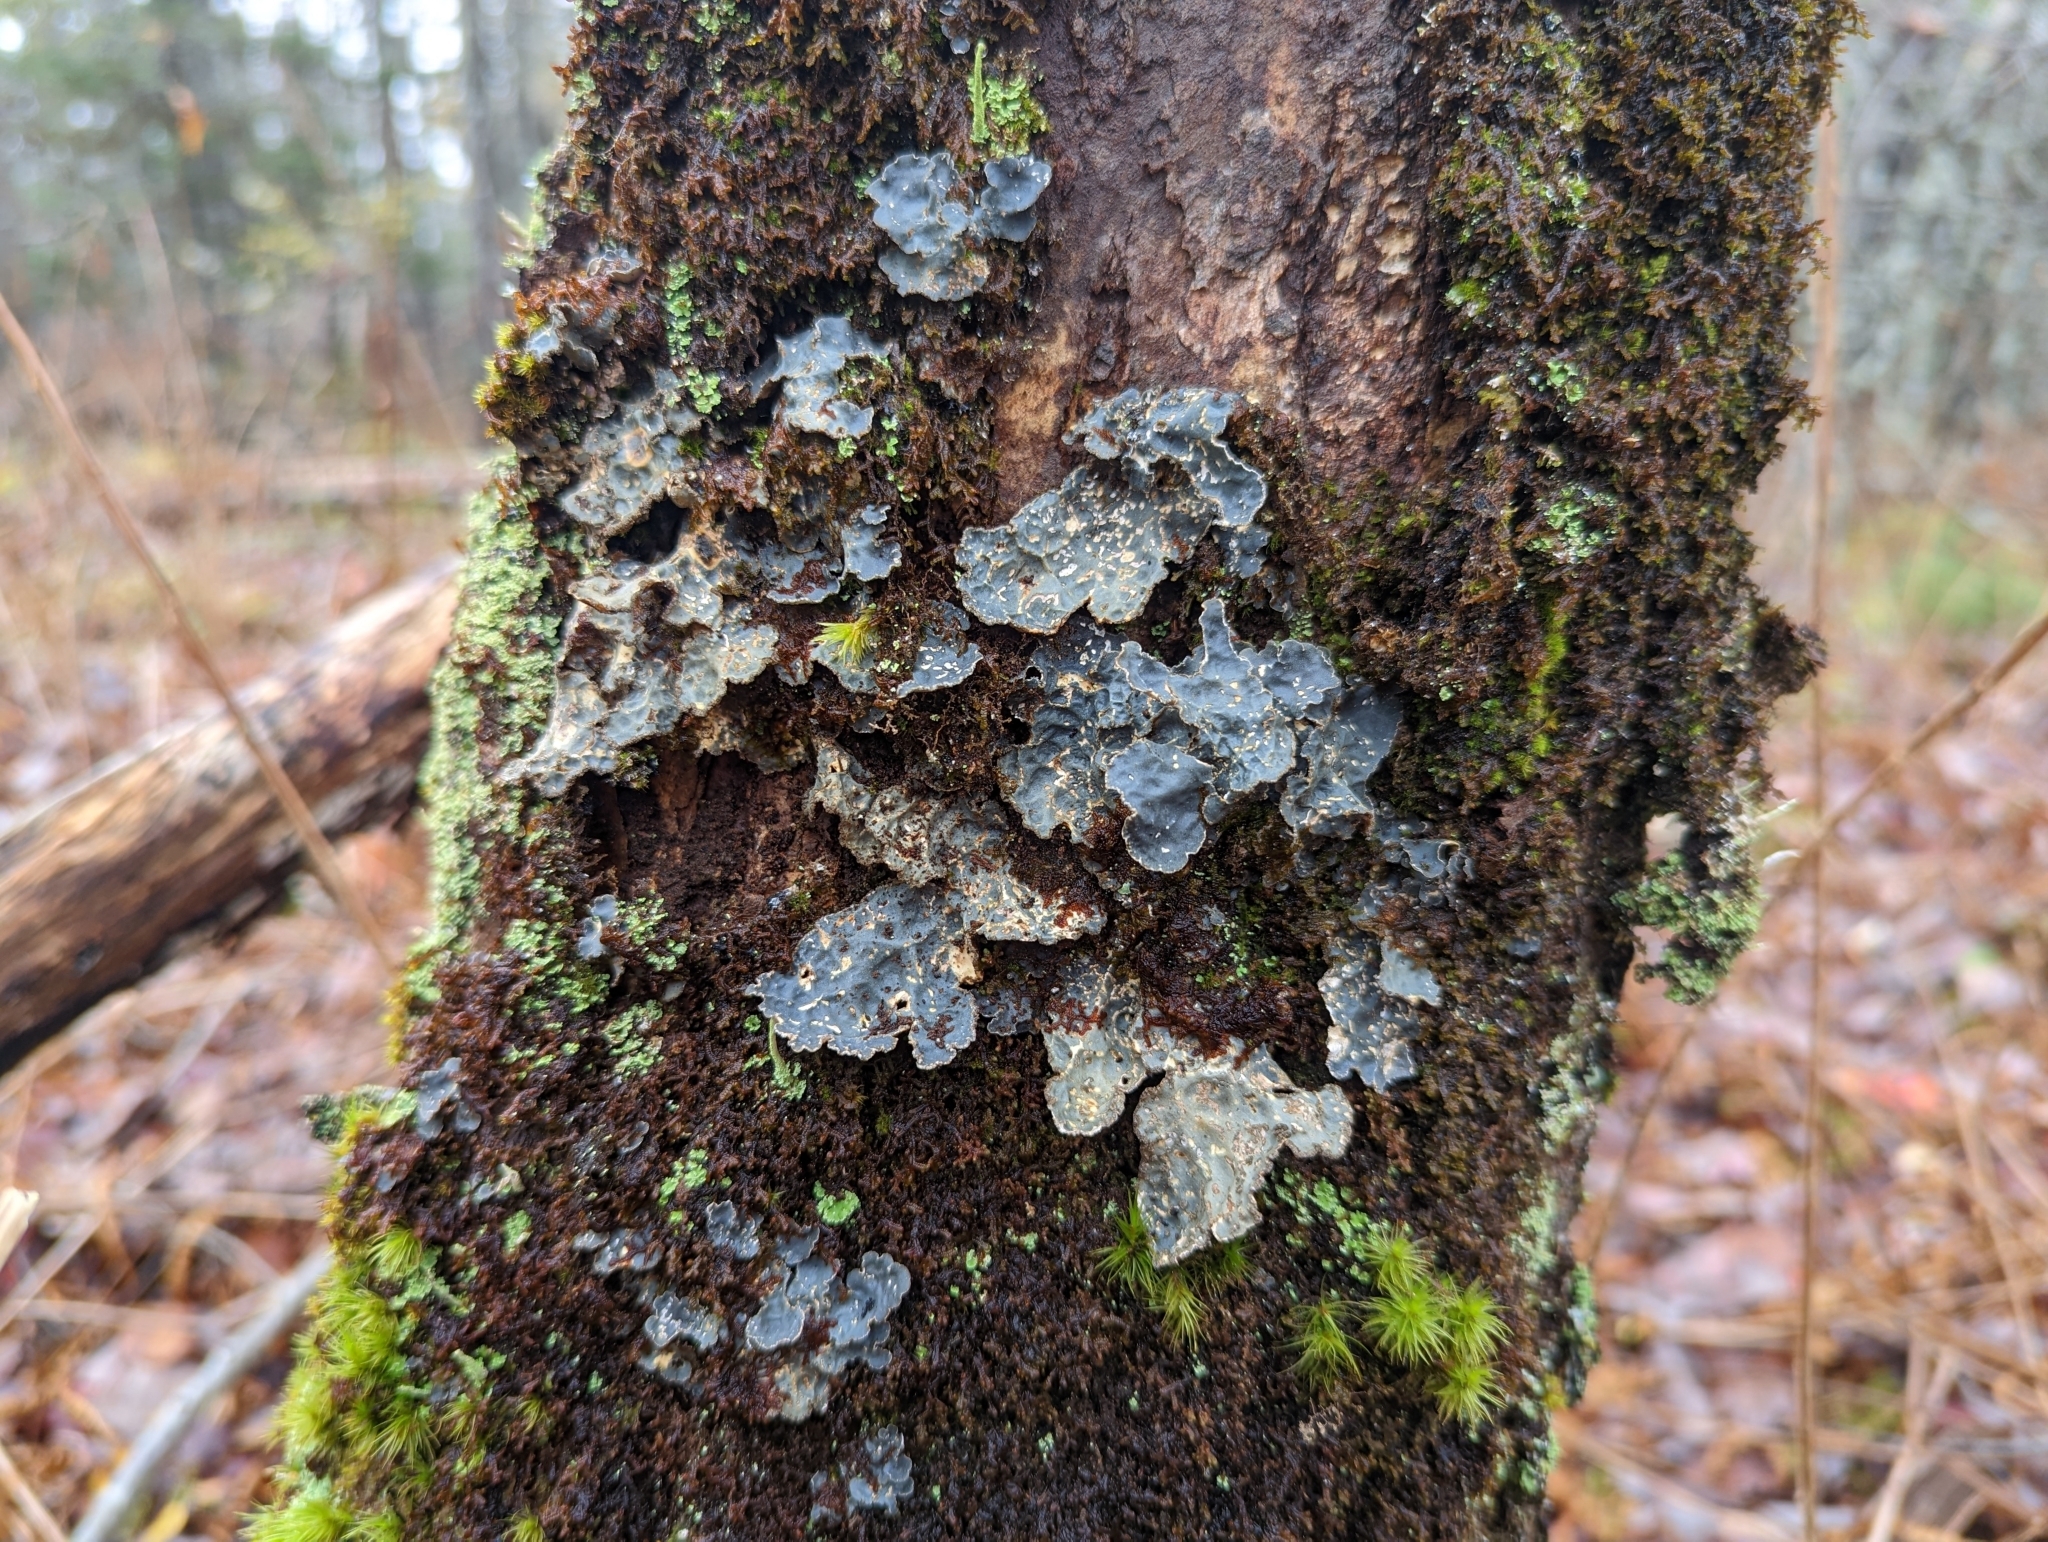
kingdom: Fungi
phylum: Ascomycota
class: Lecanoromycetes
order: Peltigerales
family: Lobariaceae
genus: Lobarina
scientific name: Lobarina scrobiculata
